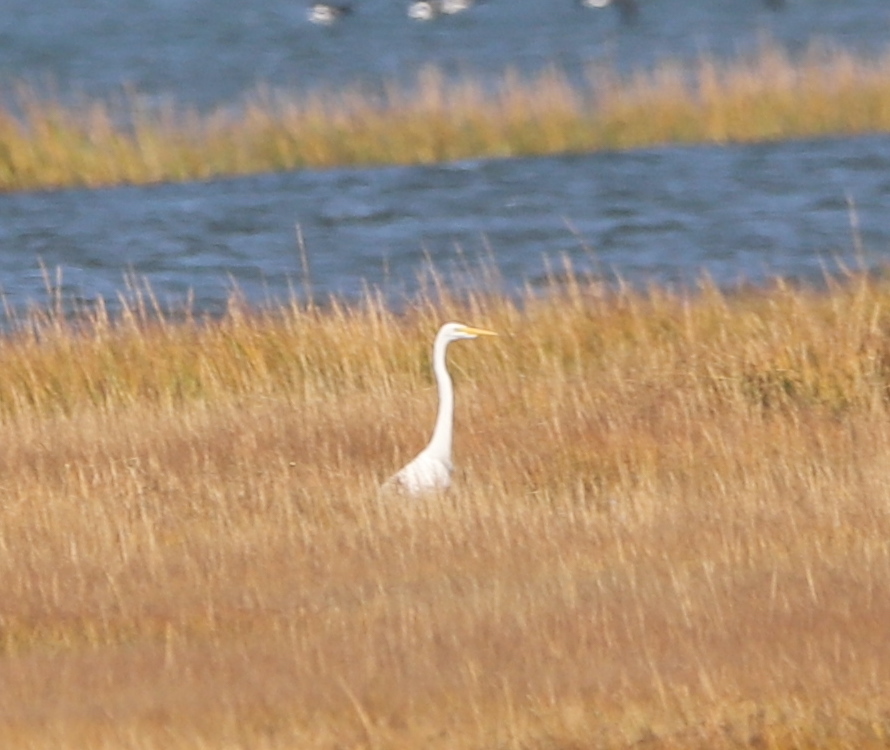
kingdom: Animalia
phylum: Chordata
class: Aves
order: Pelecaniformes
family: Ardeidae
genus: Ardea
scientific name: Ardea alba
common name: Great egret
